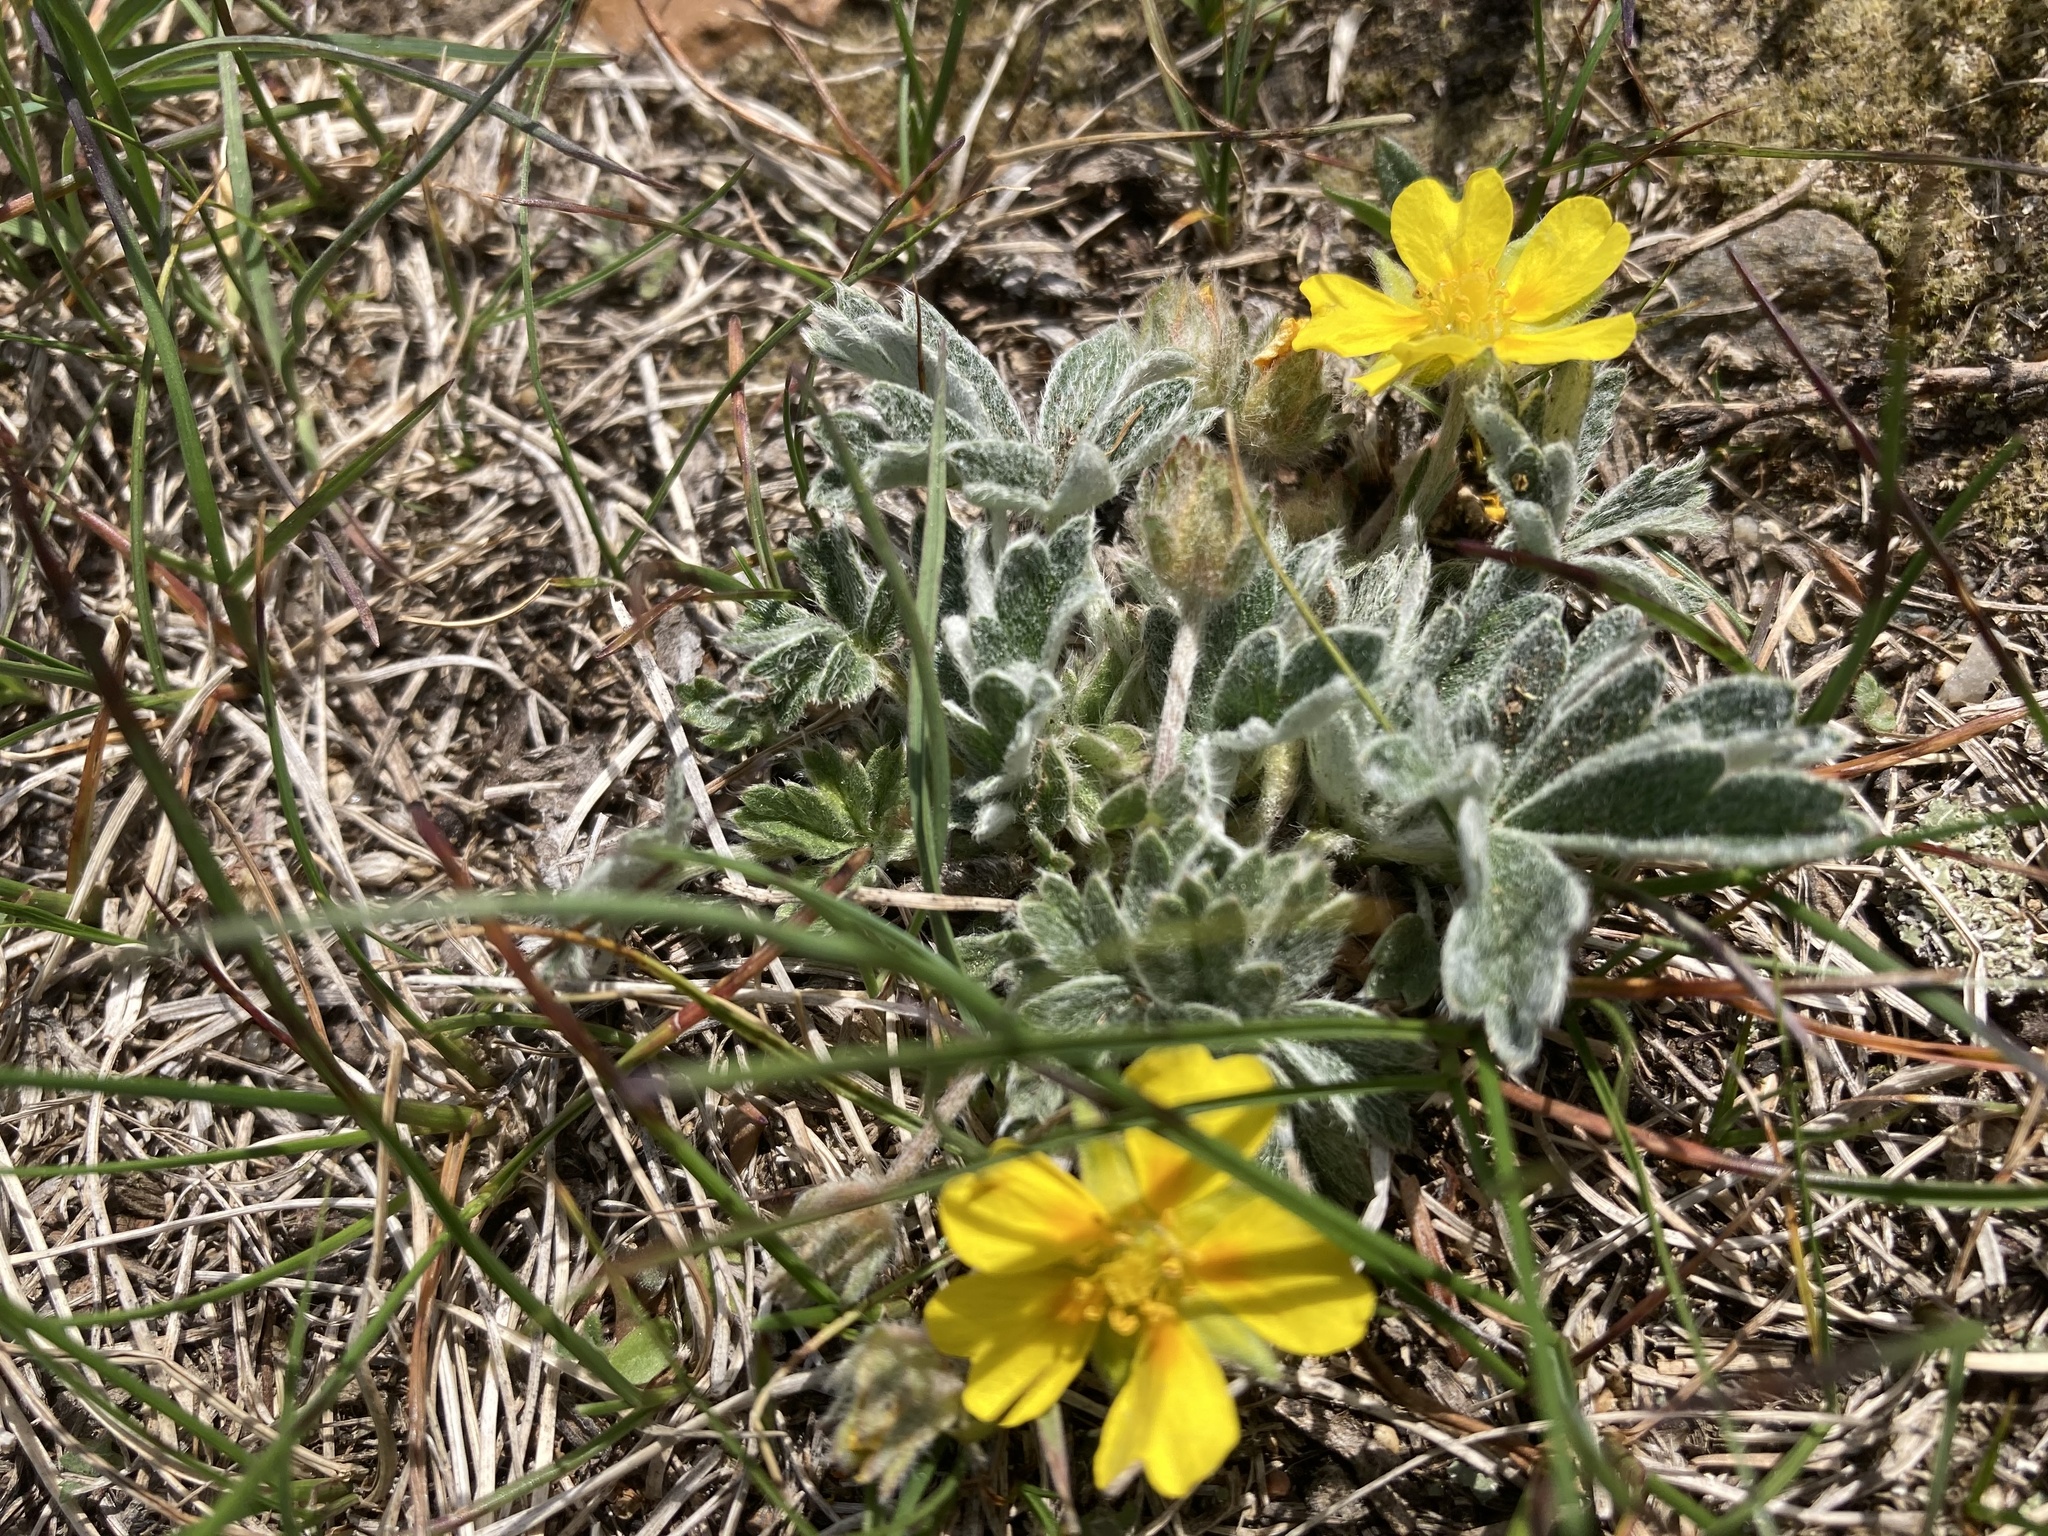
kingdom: Plantae
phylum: Tracheophyta
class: Magnoliopsida
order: Rosales
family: Rosaceae
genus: Potentilla
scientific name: Potentilla concinna
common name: Early cinquefoil
